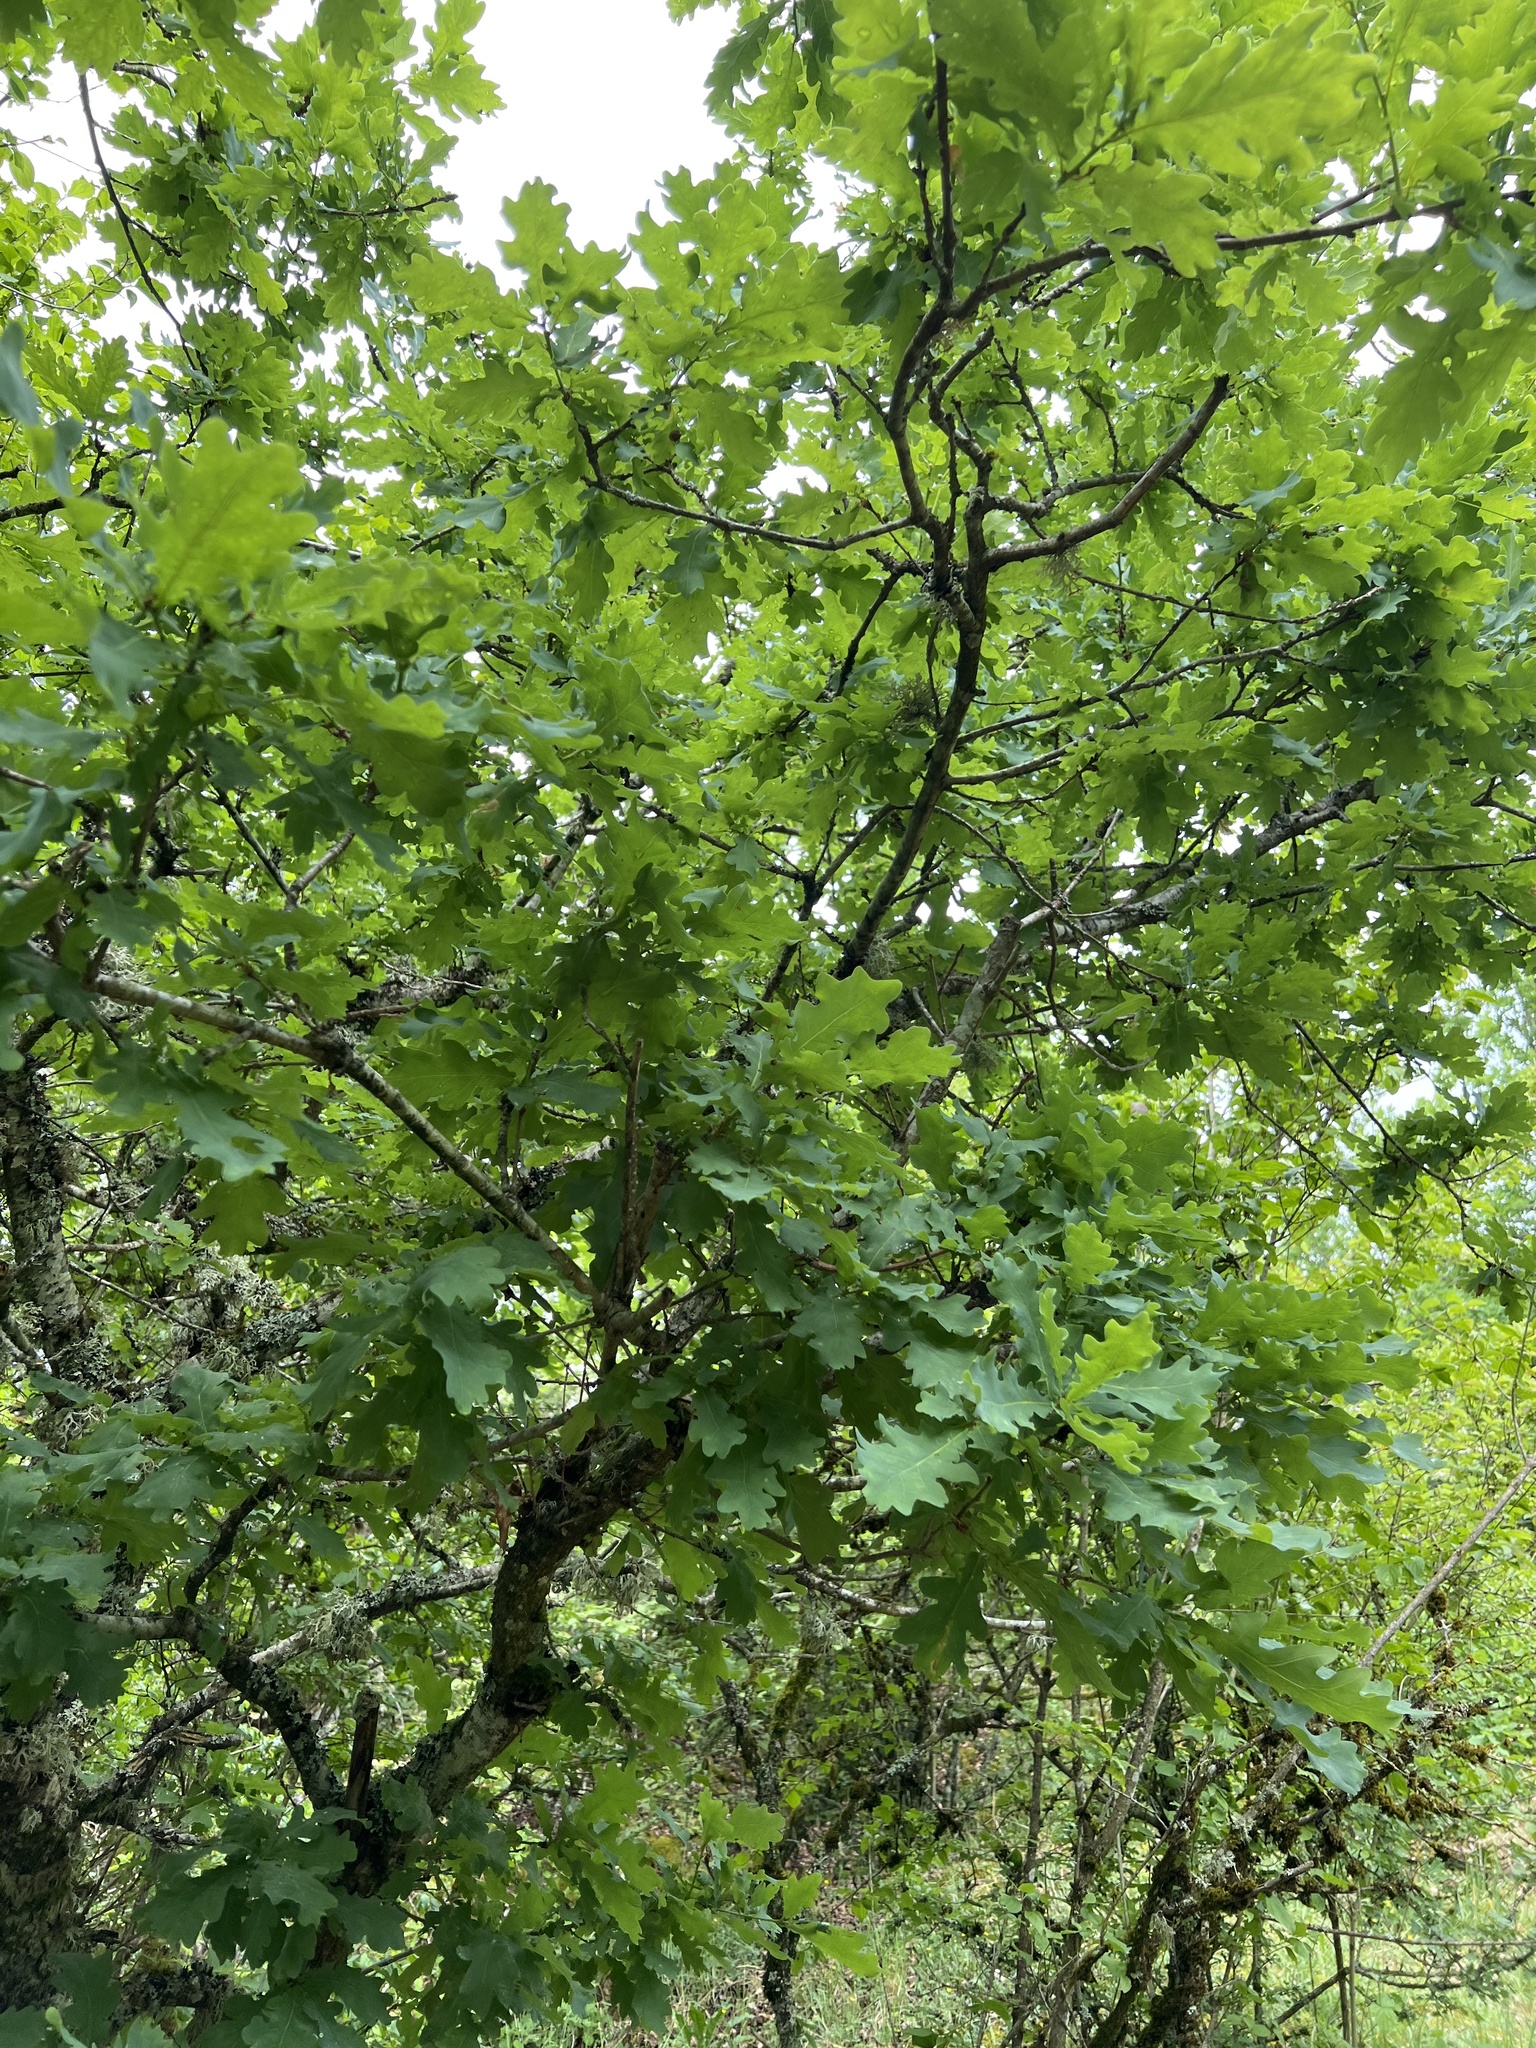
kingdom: Plantae
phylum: Tracheophyta
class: Magnoliopsida
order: Fagales
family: Fagaceae
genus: Quercus
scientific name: Quercus robur
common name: Pedunculate oak
